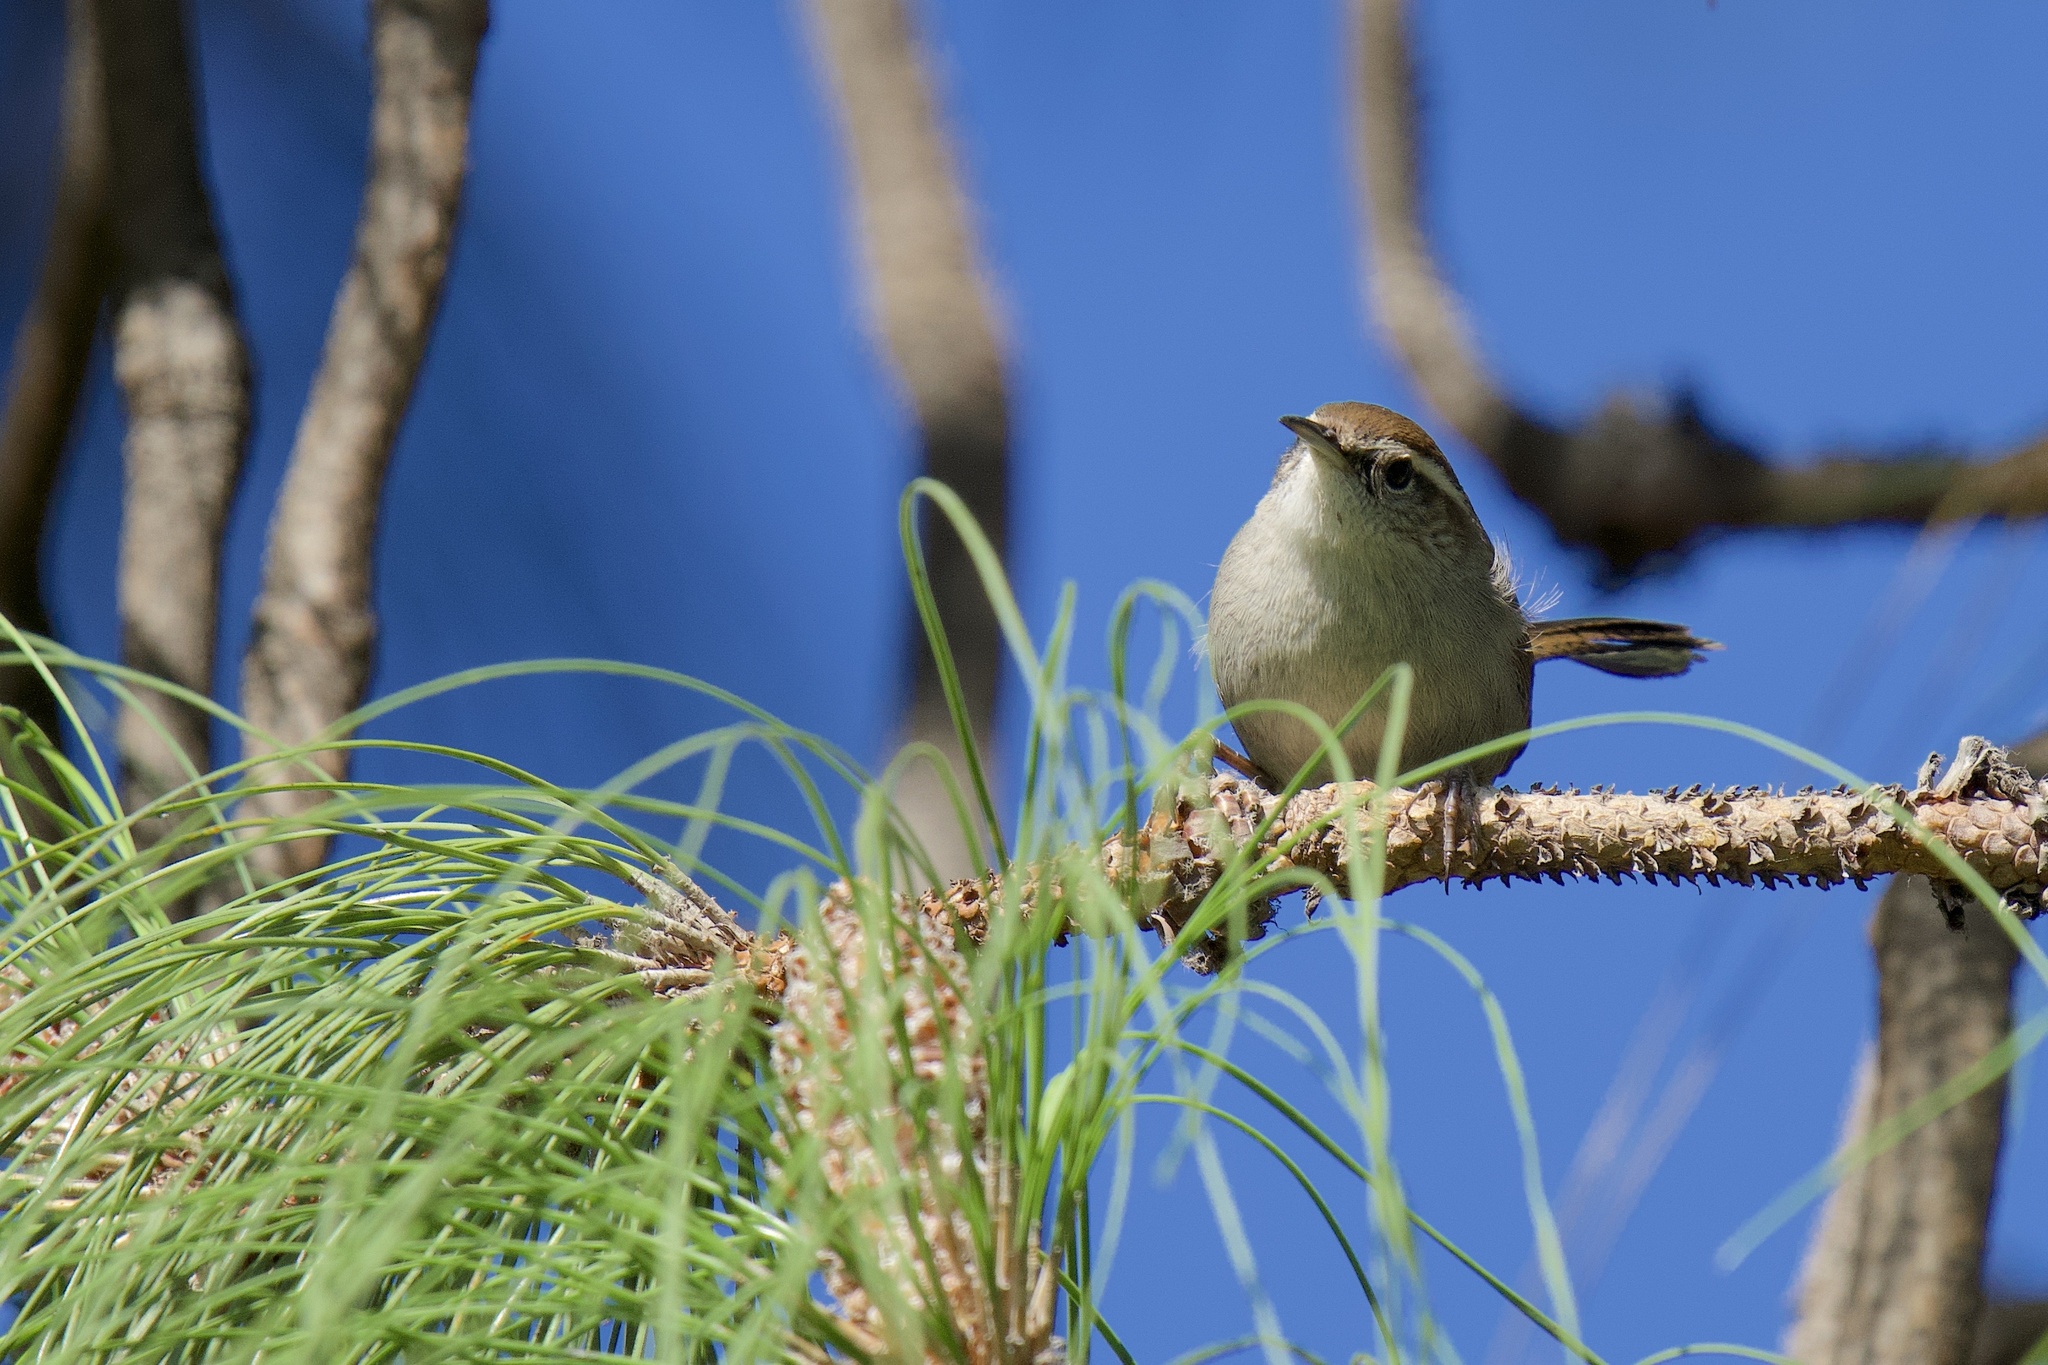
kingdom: Animalia
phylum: Chordata
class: Aves
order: Passeriformes
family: Troglodytidae
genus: Thryomanes
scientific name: Thryomanes bewickii
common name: Bewick's wren
